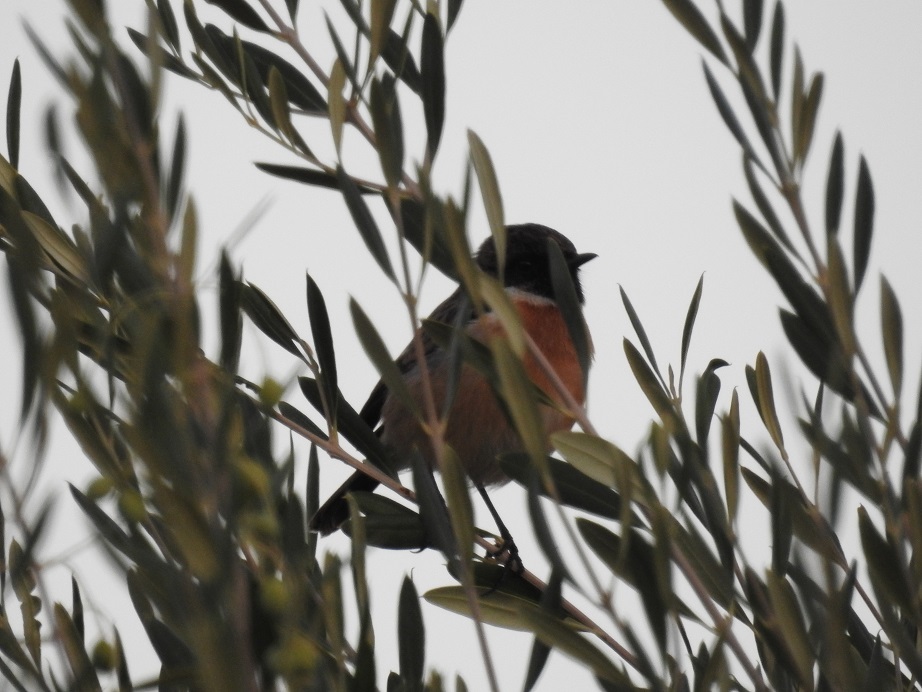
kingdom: Animalia
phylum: Chordata
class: Aves
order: Passeriformes
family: Muscicapidae
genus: Saxicola
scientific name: Saxicola rubicola
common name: European stonechat
